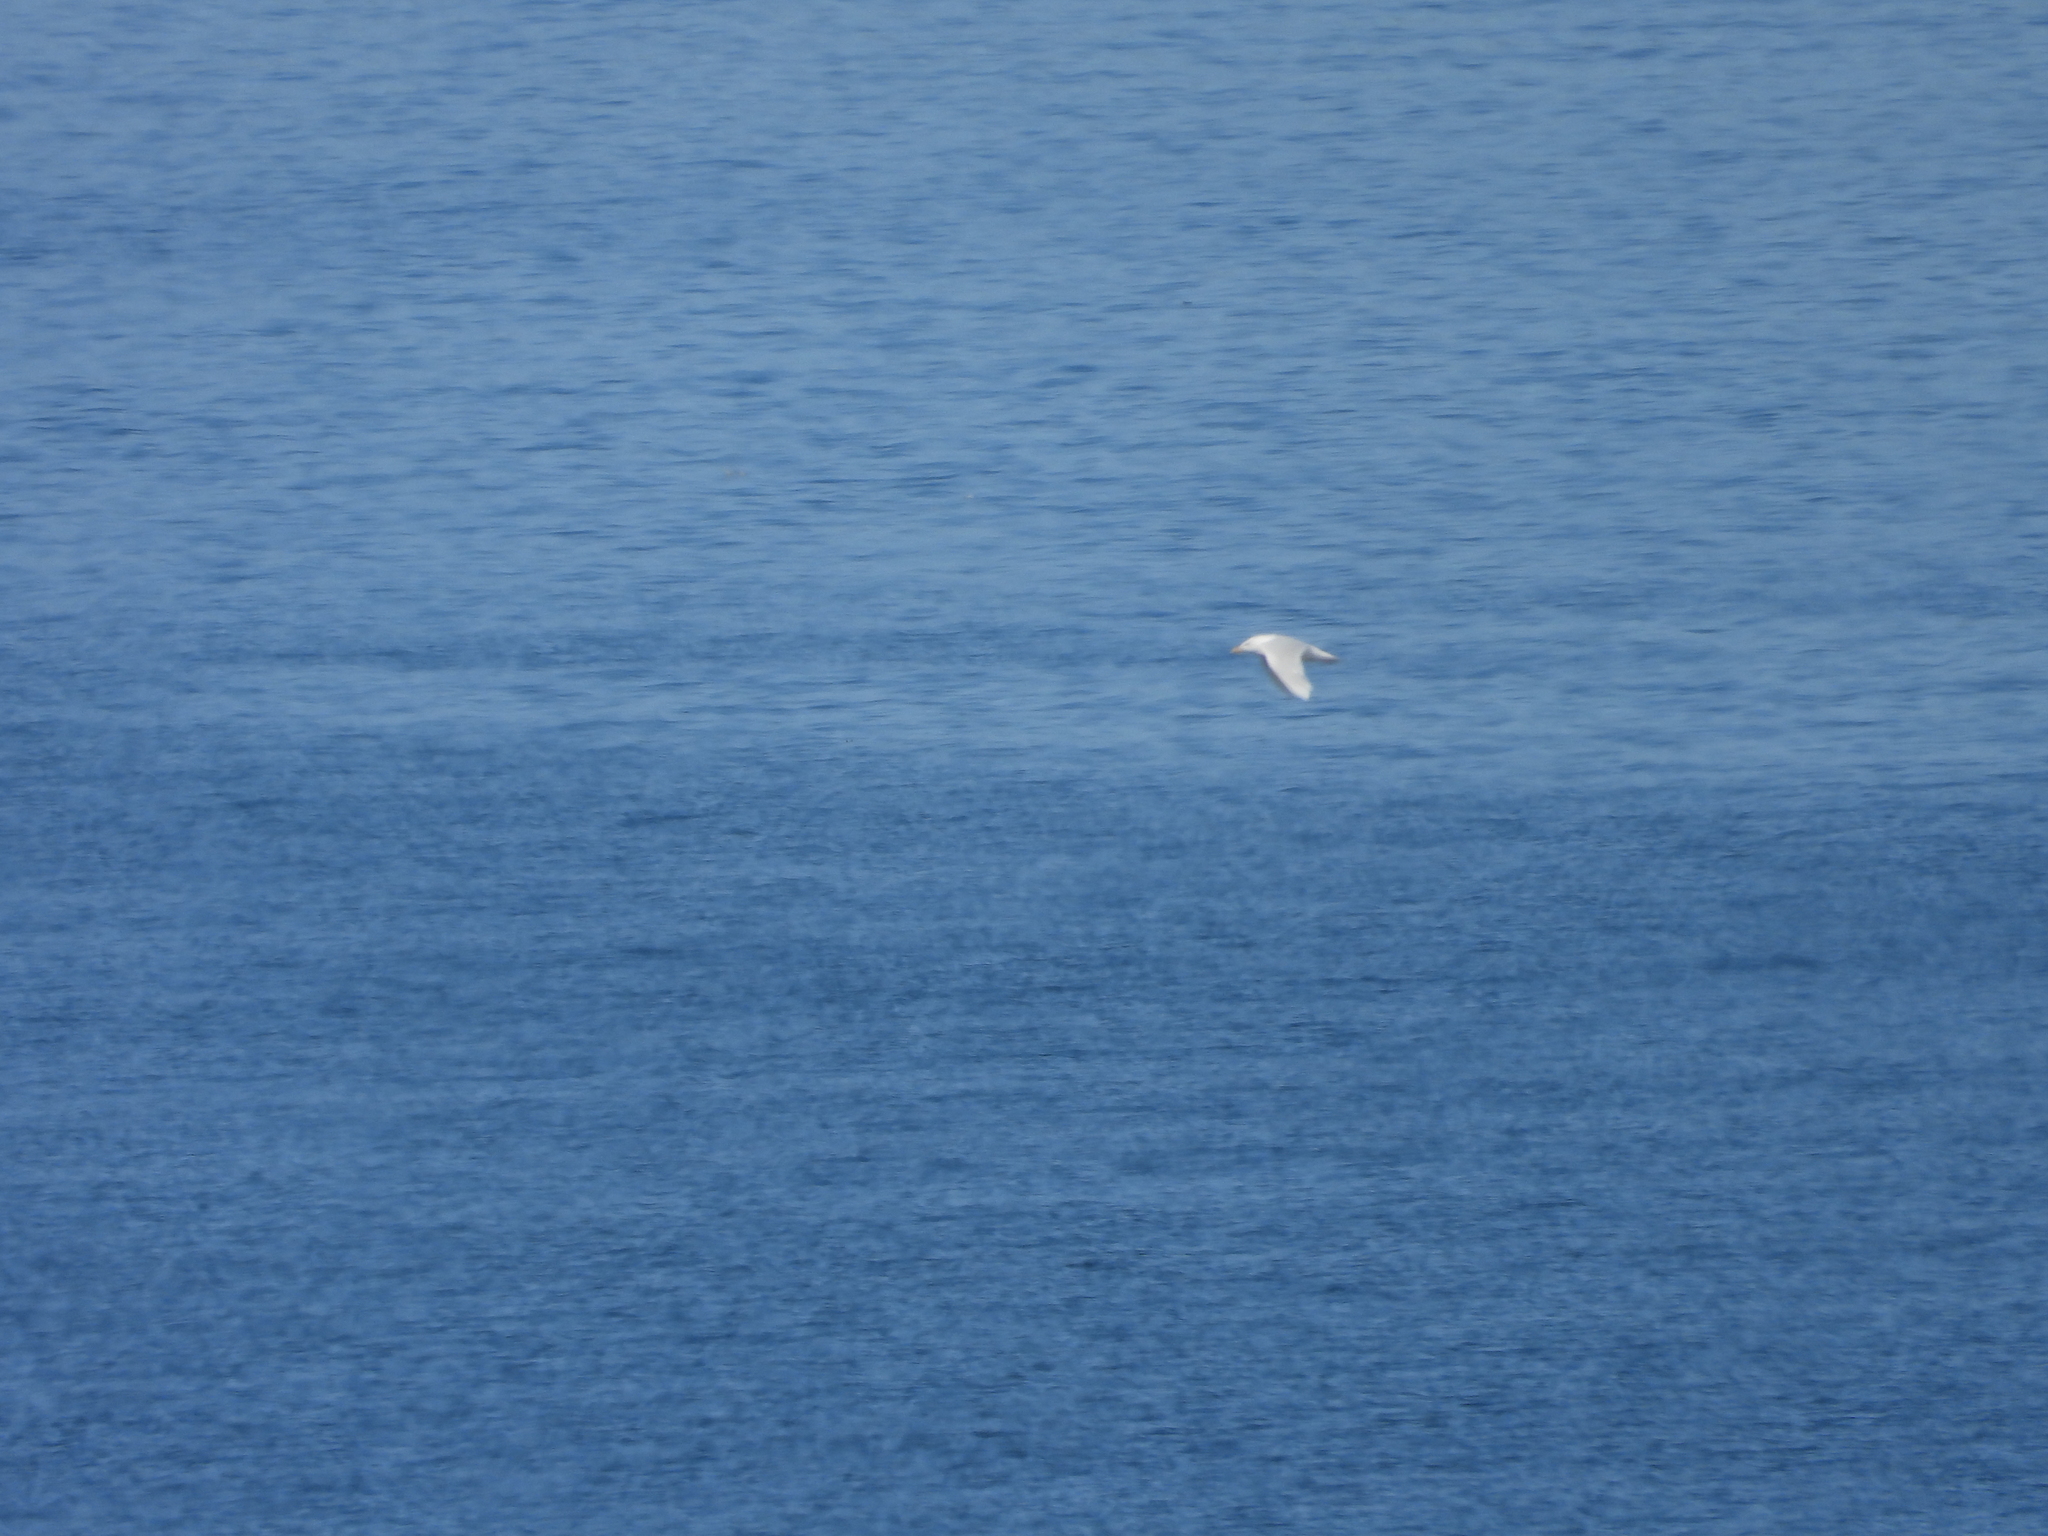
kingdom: Animalia
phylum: Chordata
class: Aves
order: Charadriiformes
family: Laridae
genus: Larus
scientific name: Larus hyperboreus
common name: Glaucous gull
